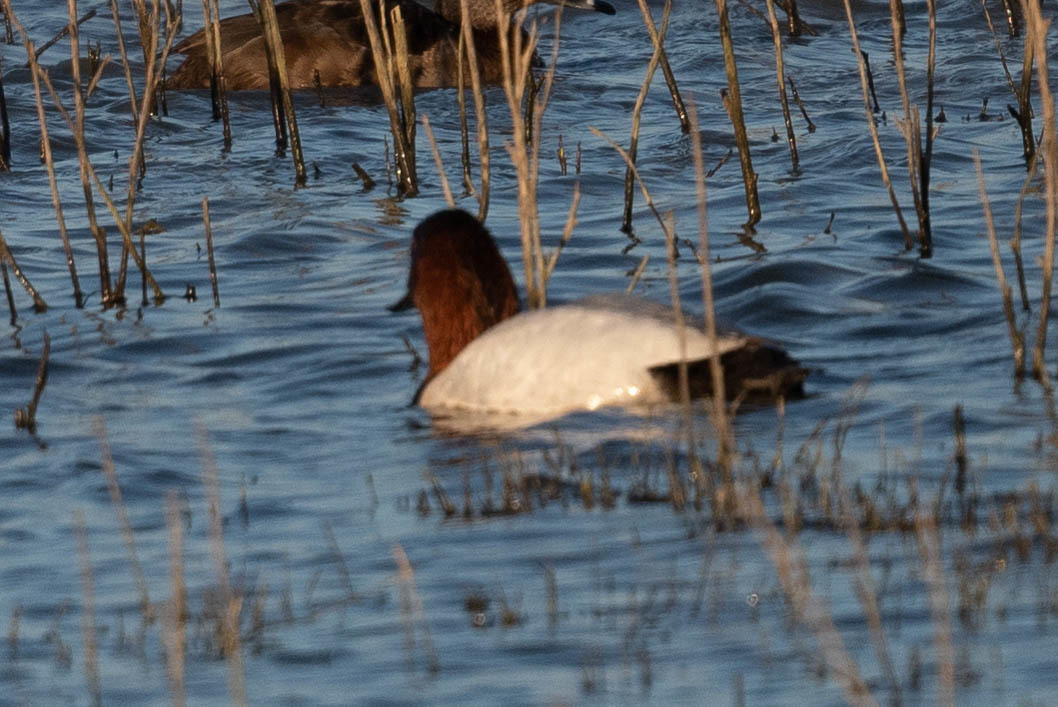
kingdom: Animalia
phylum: Chordata
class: Aves
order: Anseriformes
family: Anatidae
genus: Aythya
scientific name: Aythya valisineria
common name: Canvasback
